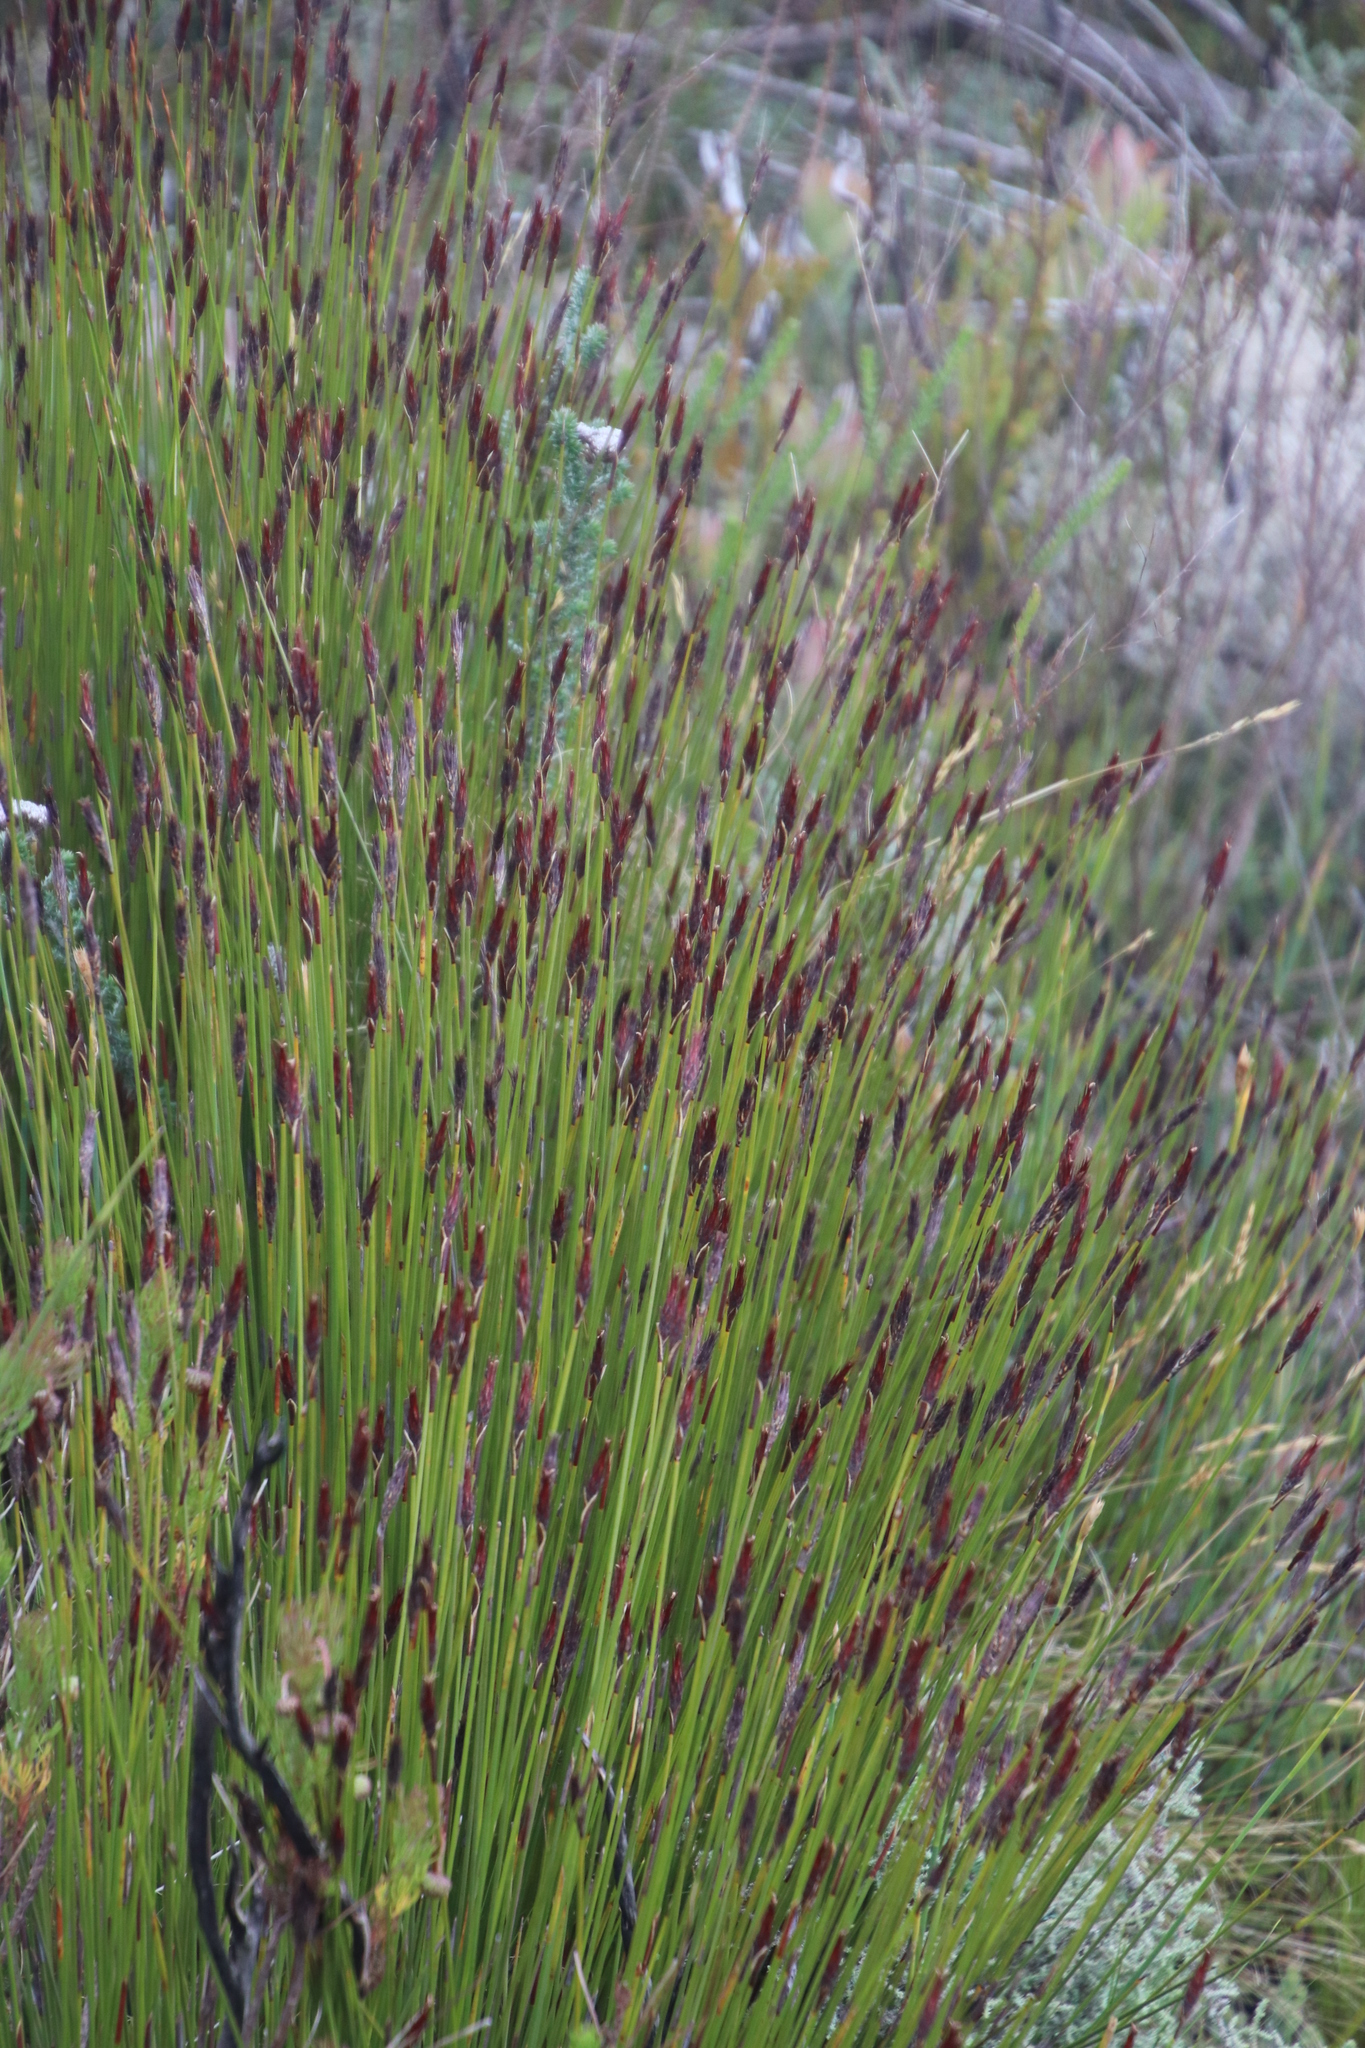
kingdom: Plantae
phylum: Tracheophyta
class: Liliopsida
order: Poales
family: Restionaceae
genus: Hypodiscus
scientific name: Hypodiscus aristatus
